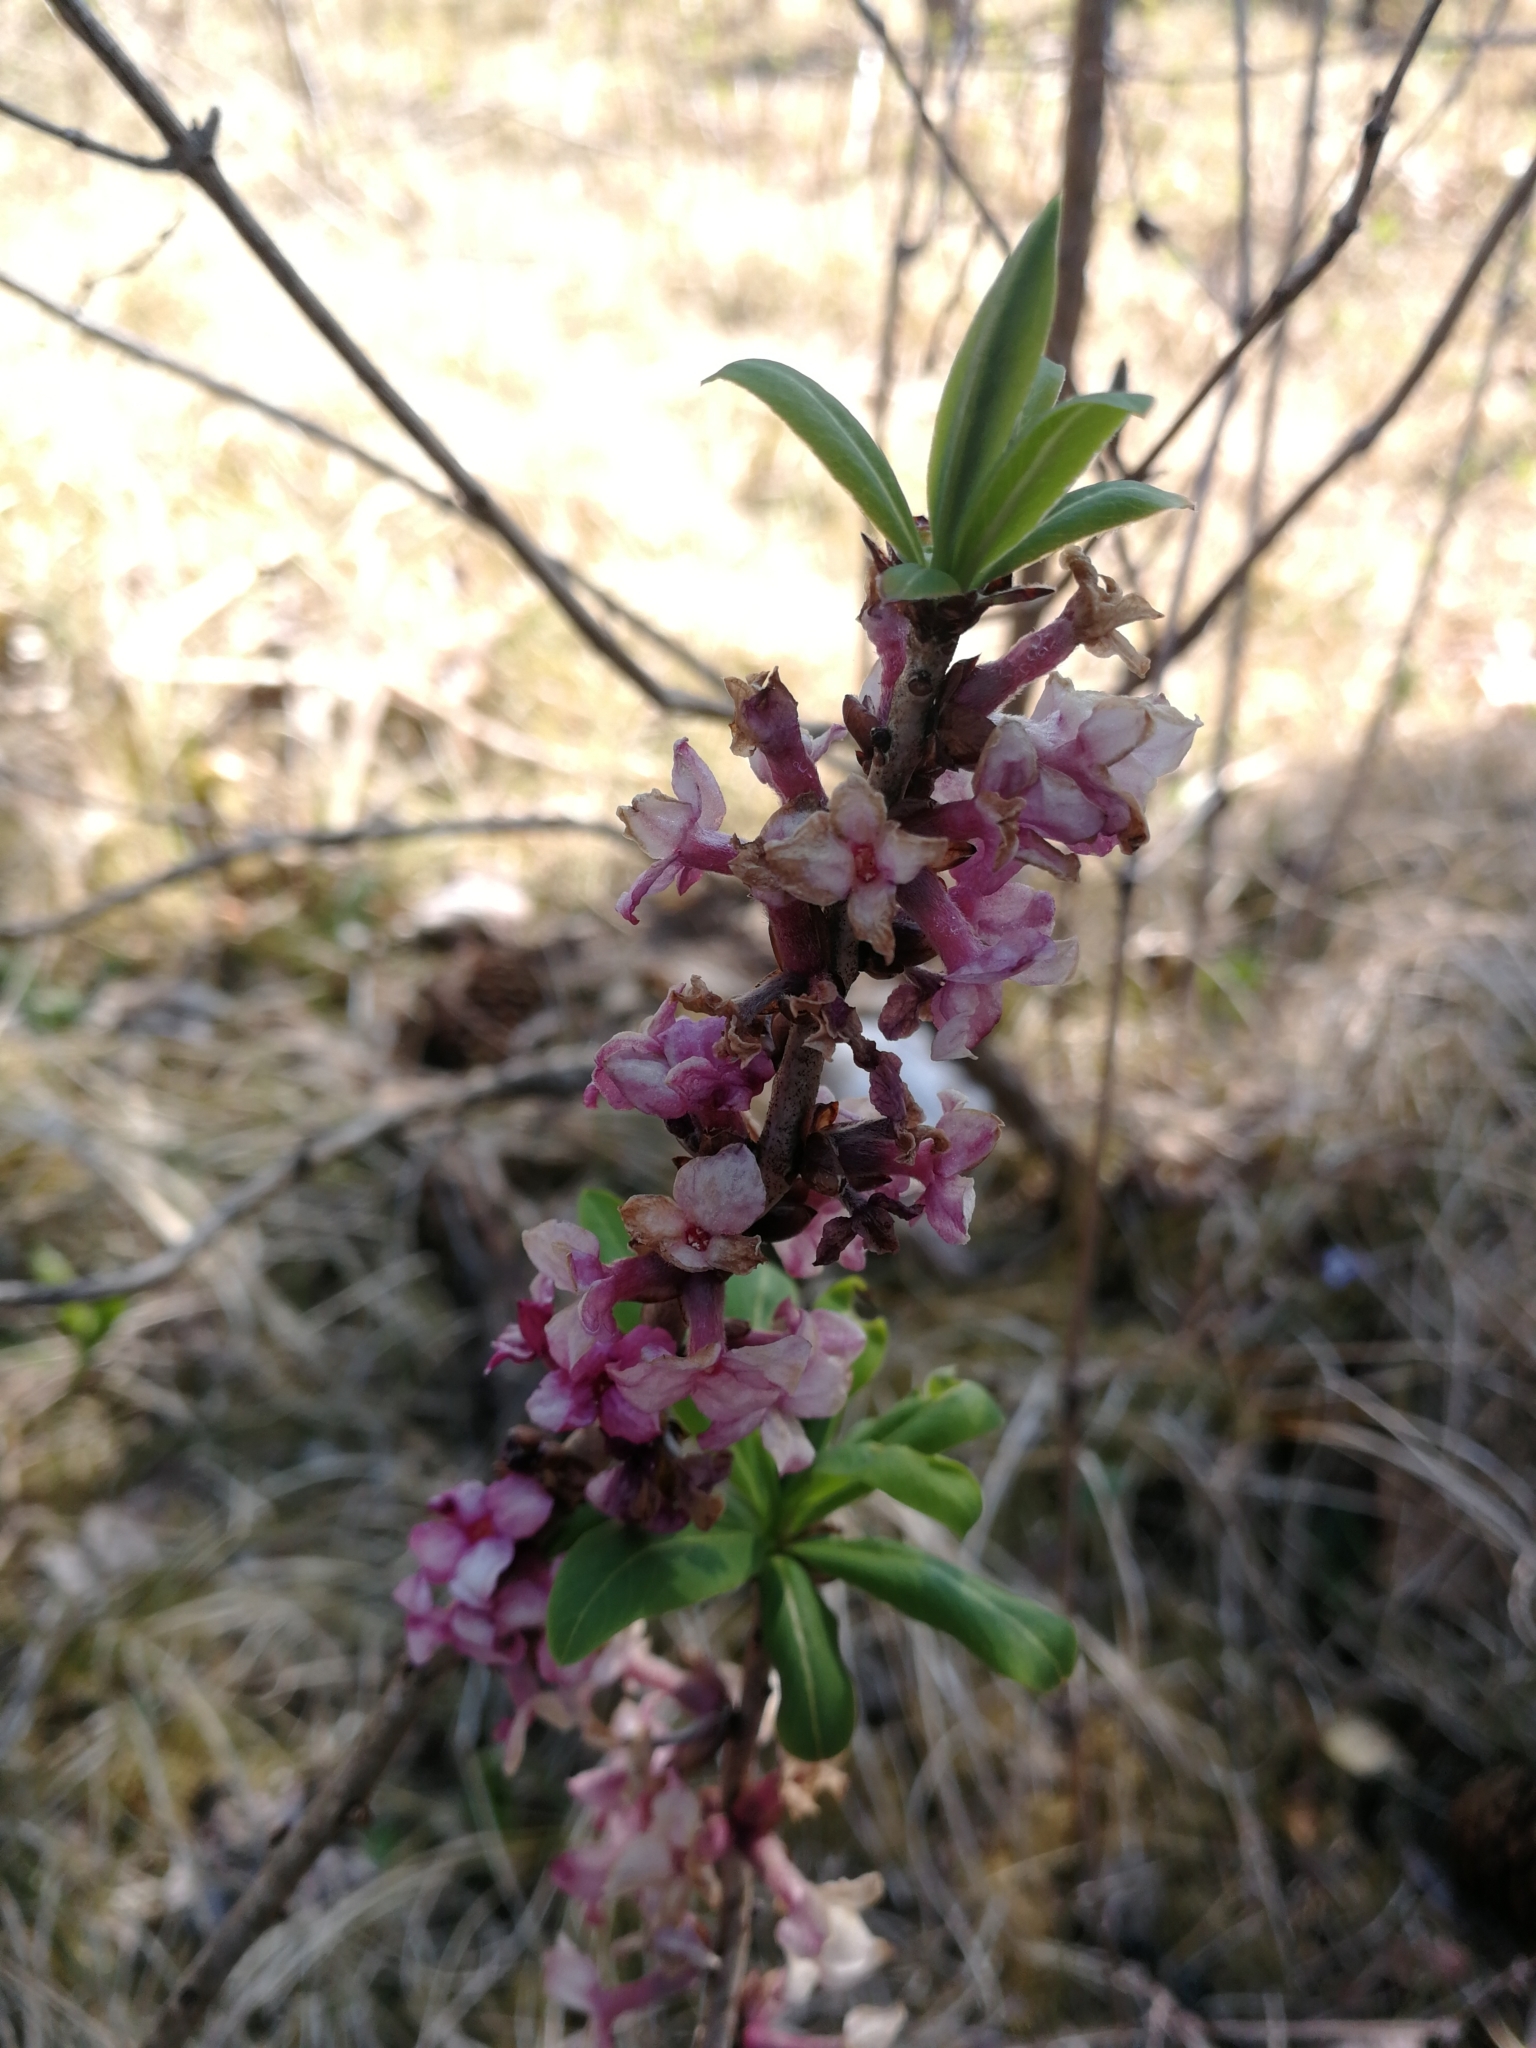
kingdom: Plantae
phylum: Tracheophyta
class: Magnoliopsida
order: Malvales
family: Thymelaeaceae
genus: Daphne
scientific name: Daphne mezereum
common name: Mezereon
